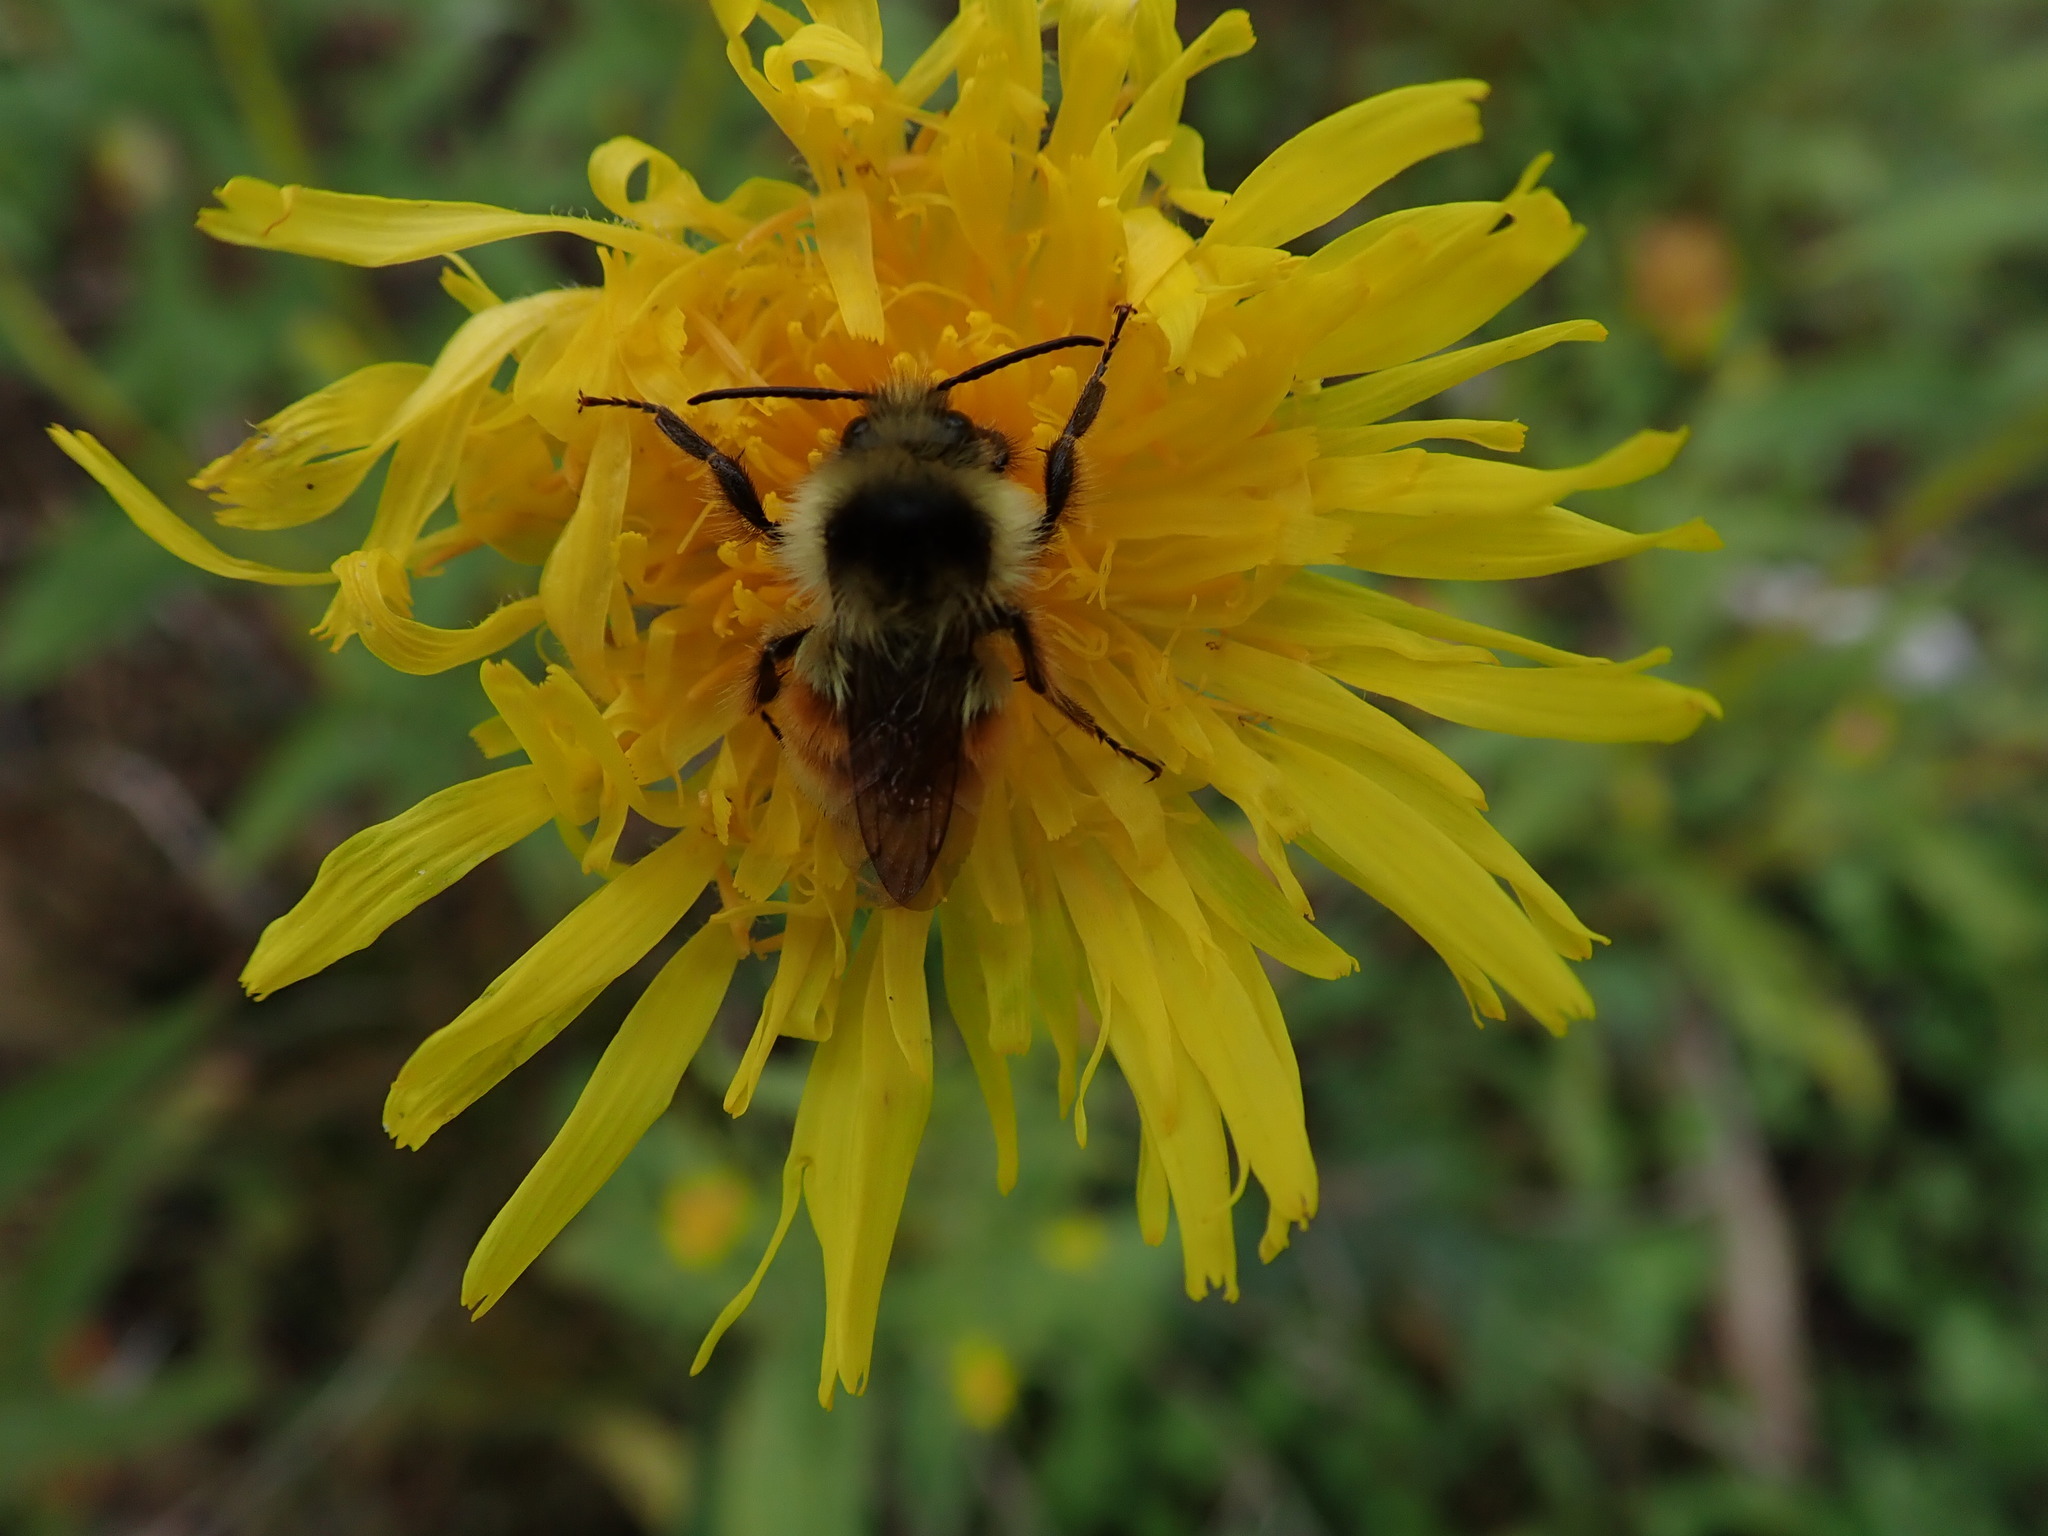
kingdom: Animalia
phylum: Arthropoda
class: Insecta
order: Hymenoptera
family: Apidae
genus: Bombus
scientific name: Bombus ternarius
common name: Tri-colored bumble bee
